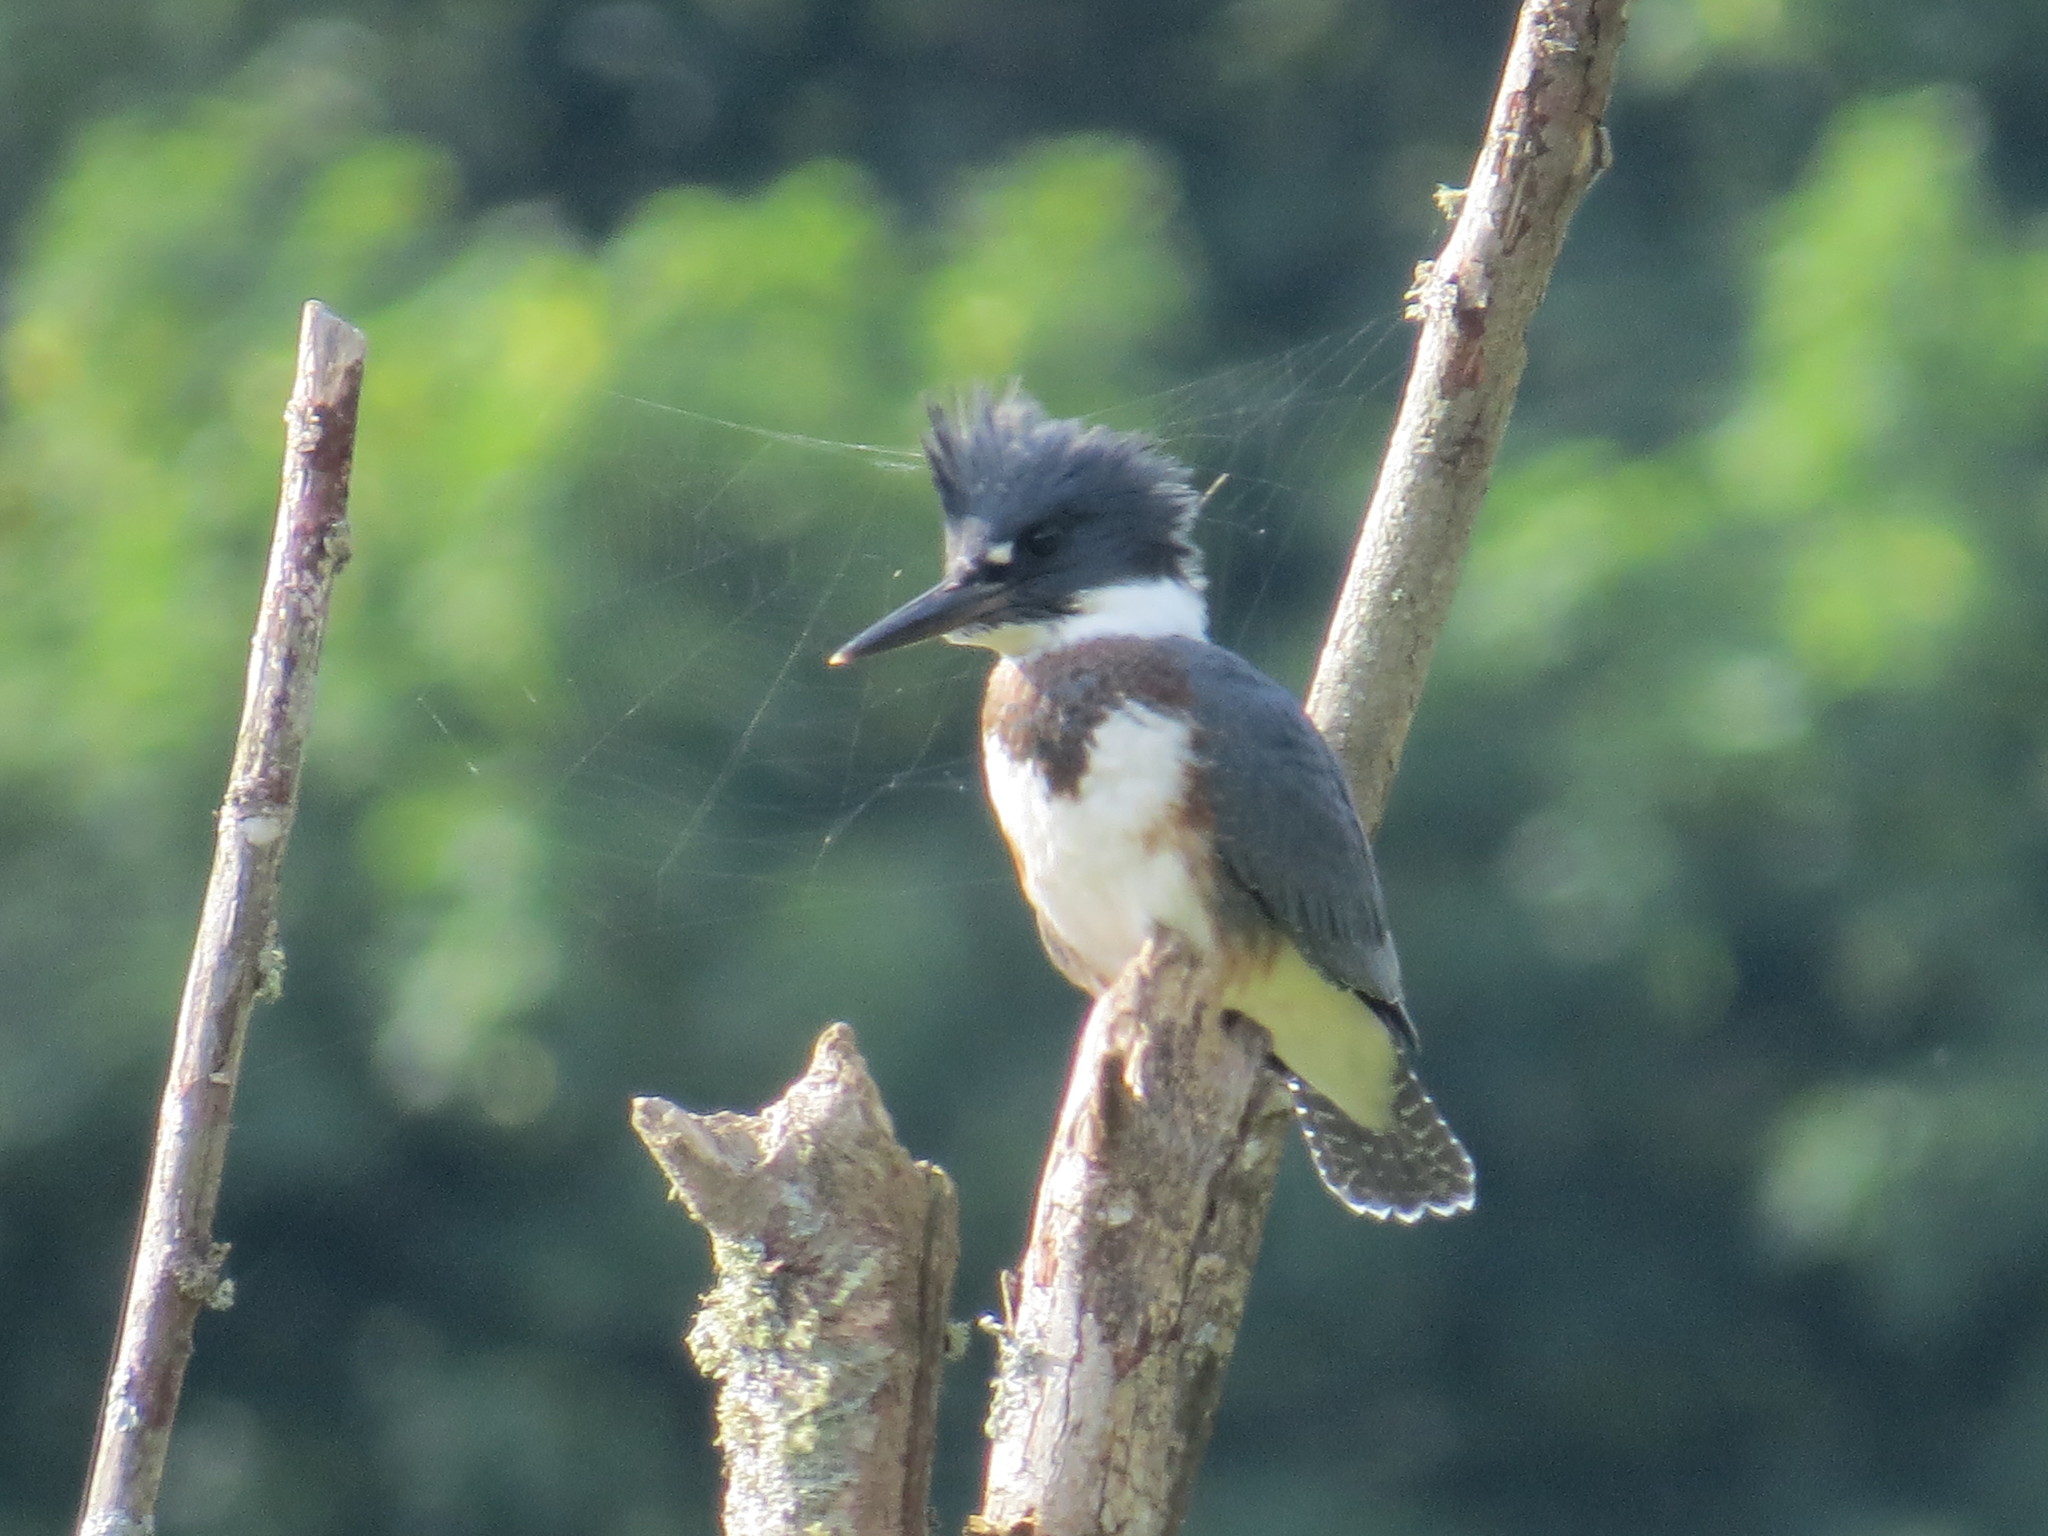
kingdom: Animalia
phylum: Chordata
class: Aves
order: Coraciiformes
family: Alcedinidae
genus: Megaceryle
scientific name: Megaceryle alcyon
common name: Belted kingfisher
